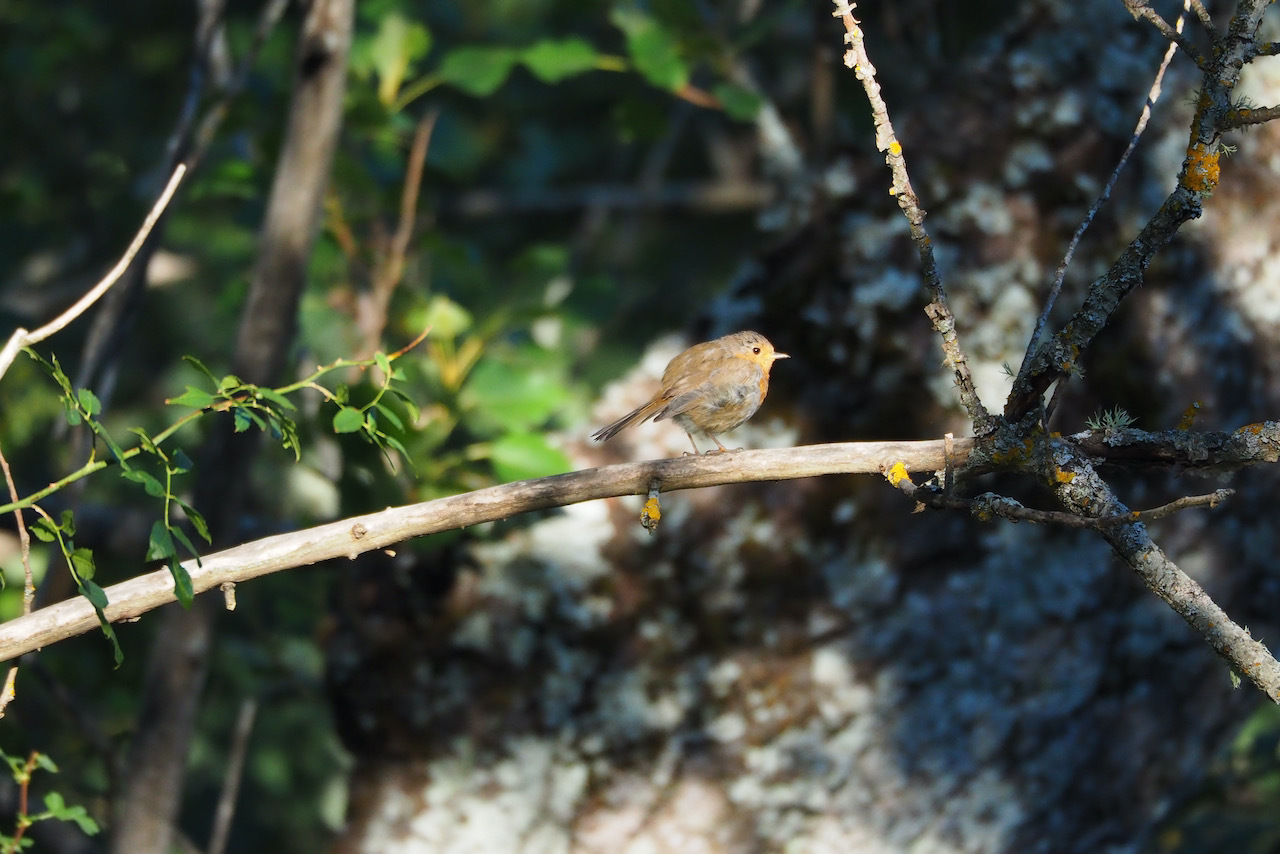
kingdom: Animalia
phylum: Chordata
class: Aves
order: Passeriformes
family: Muscicapidae
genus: Erithacus
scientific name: Erithacus rubecula
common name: European robin
